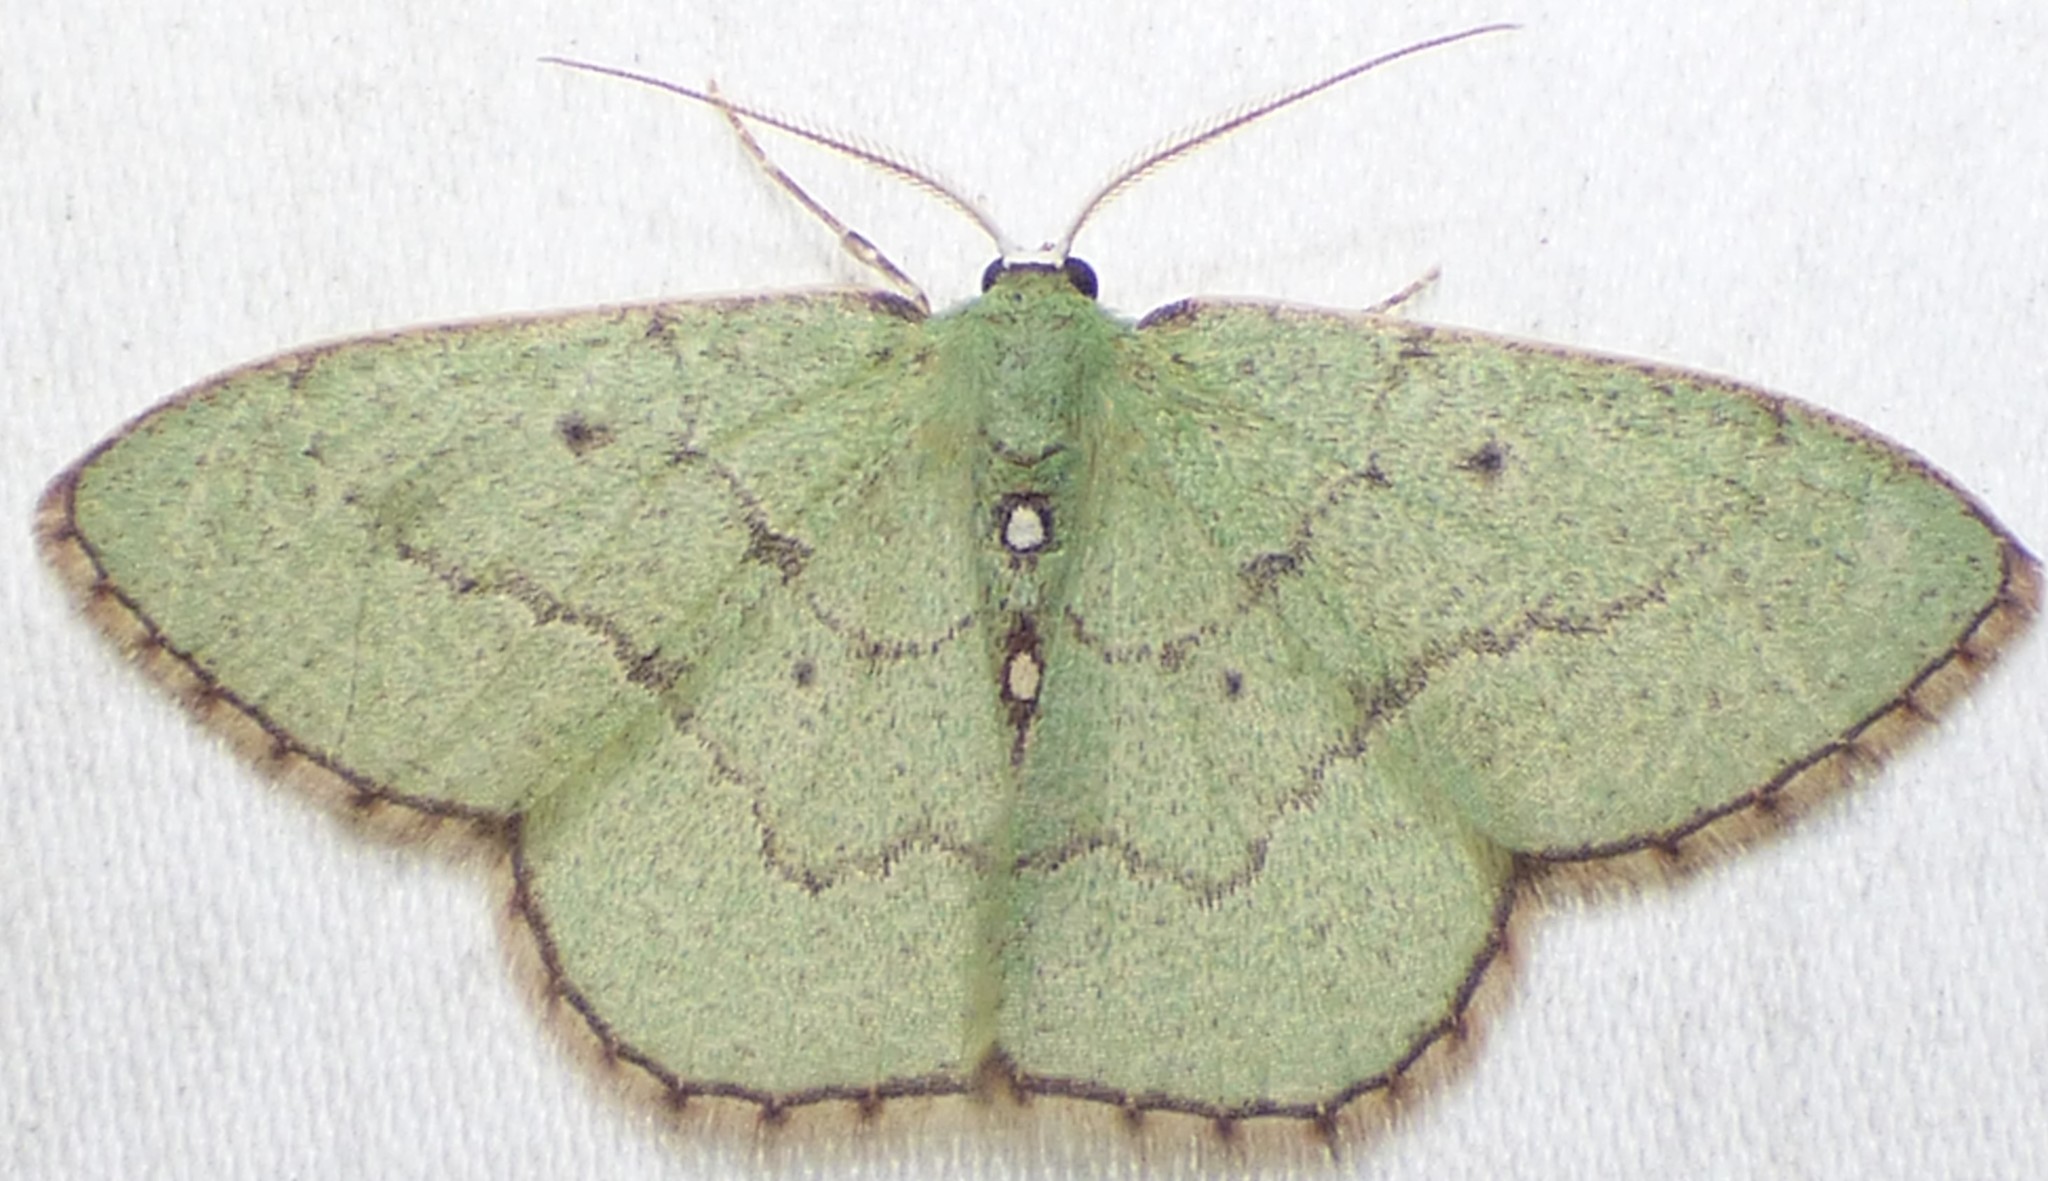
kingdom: Animalia
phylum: Arthropoda
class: Insecta
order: Lepidoptera
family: Geometridae
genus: Nemoria
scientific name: Nemoria lixaria
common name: Red-bordered emerald
